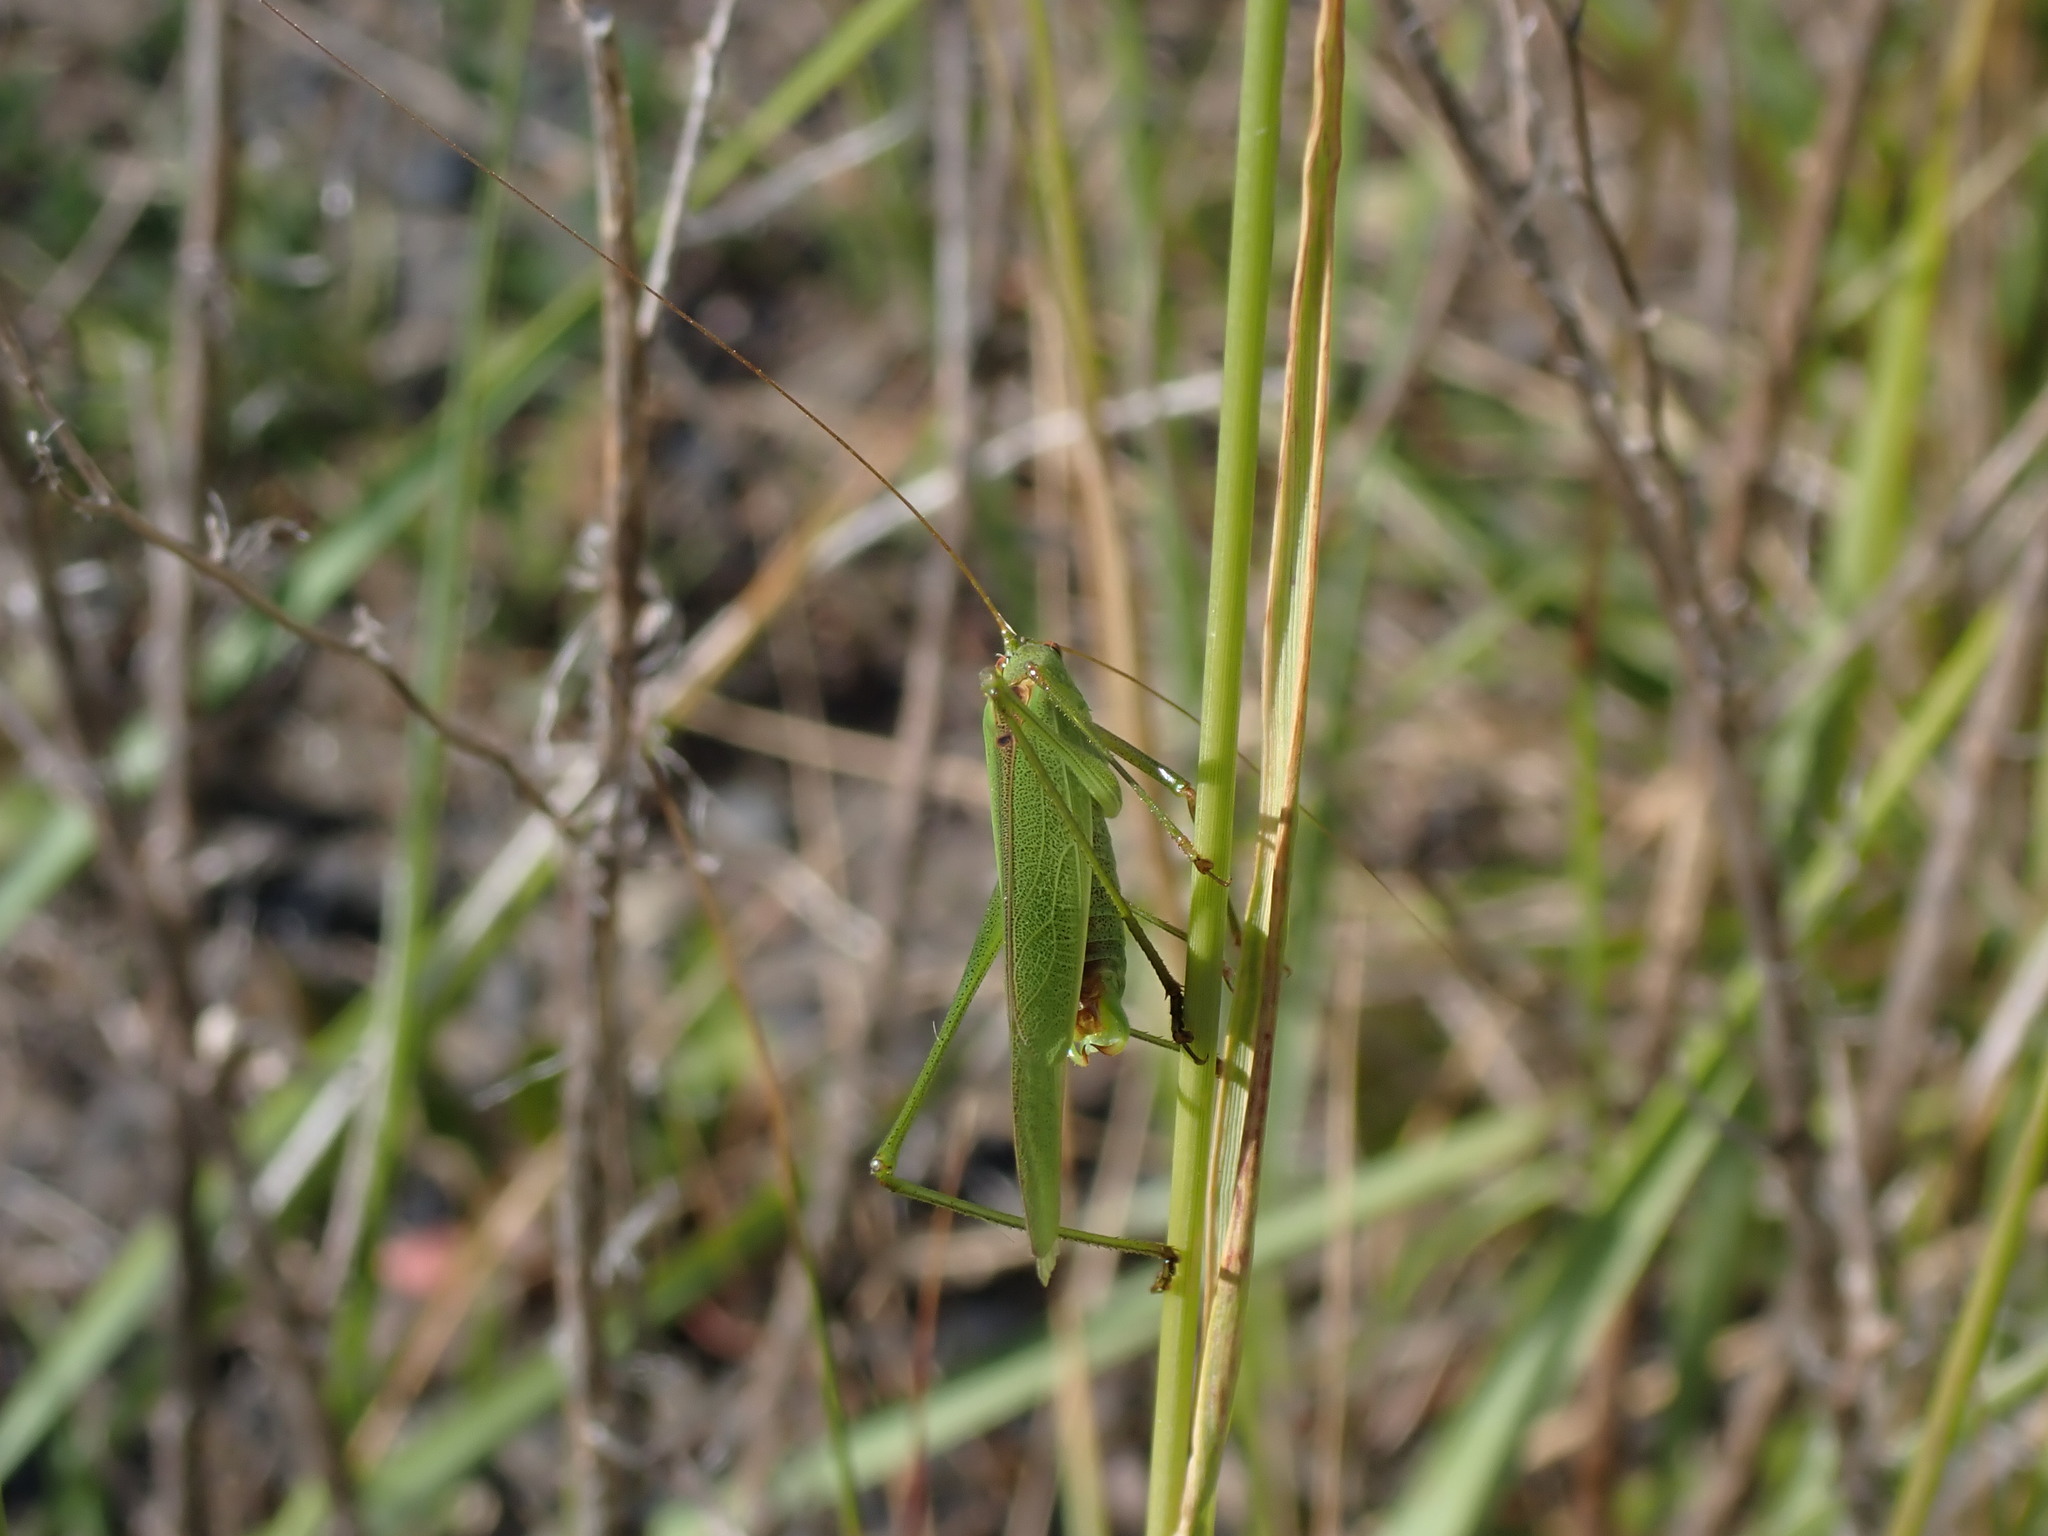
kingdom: Animalia
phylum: Arthropoda
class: Insecta
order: Orthoptera
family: Tettigoniidae
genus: Phaneroptera
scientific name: Phaneroptera falcata
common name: Sickle-bearing bush-cricket
